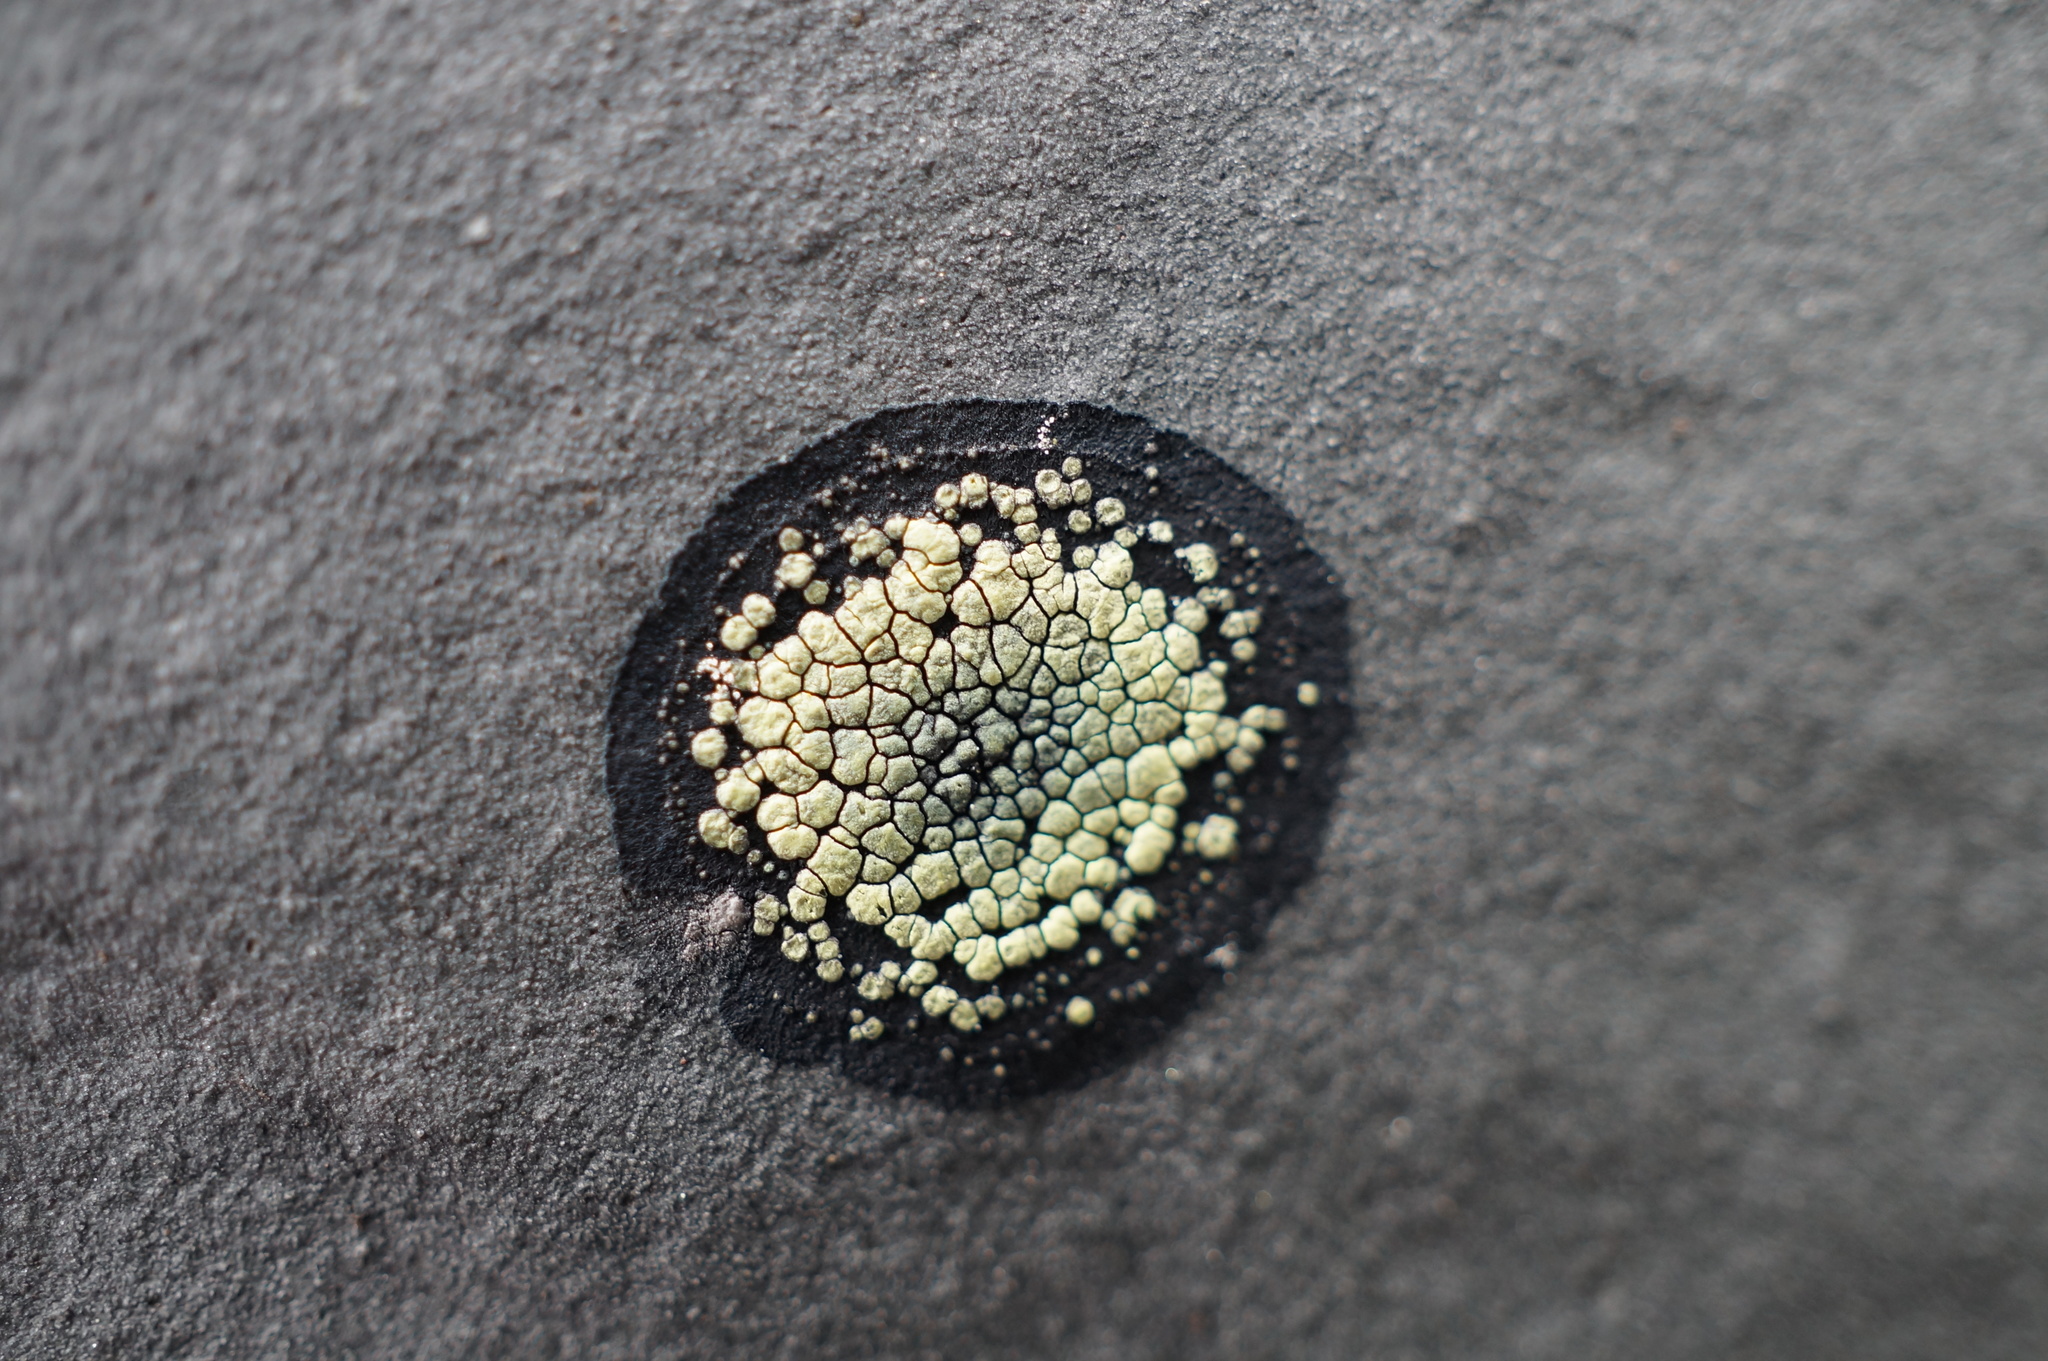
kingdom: Fungi
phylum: Ascomycota
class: Lecanoromycetes
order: Rhizocarpales
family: Rhizocarpaceae
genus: Rhizocarpon
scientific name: Rhizocarpon geographicum
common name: Yellow map lichen
